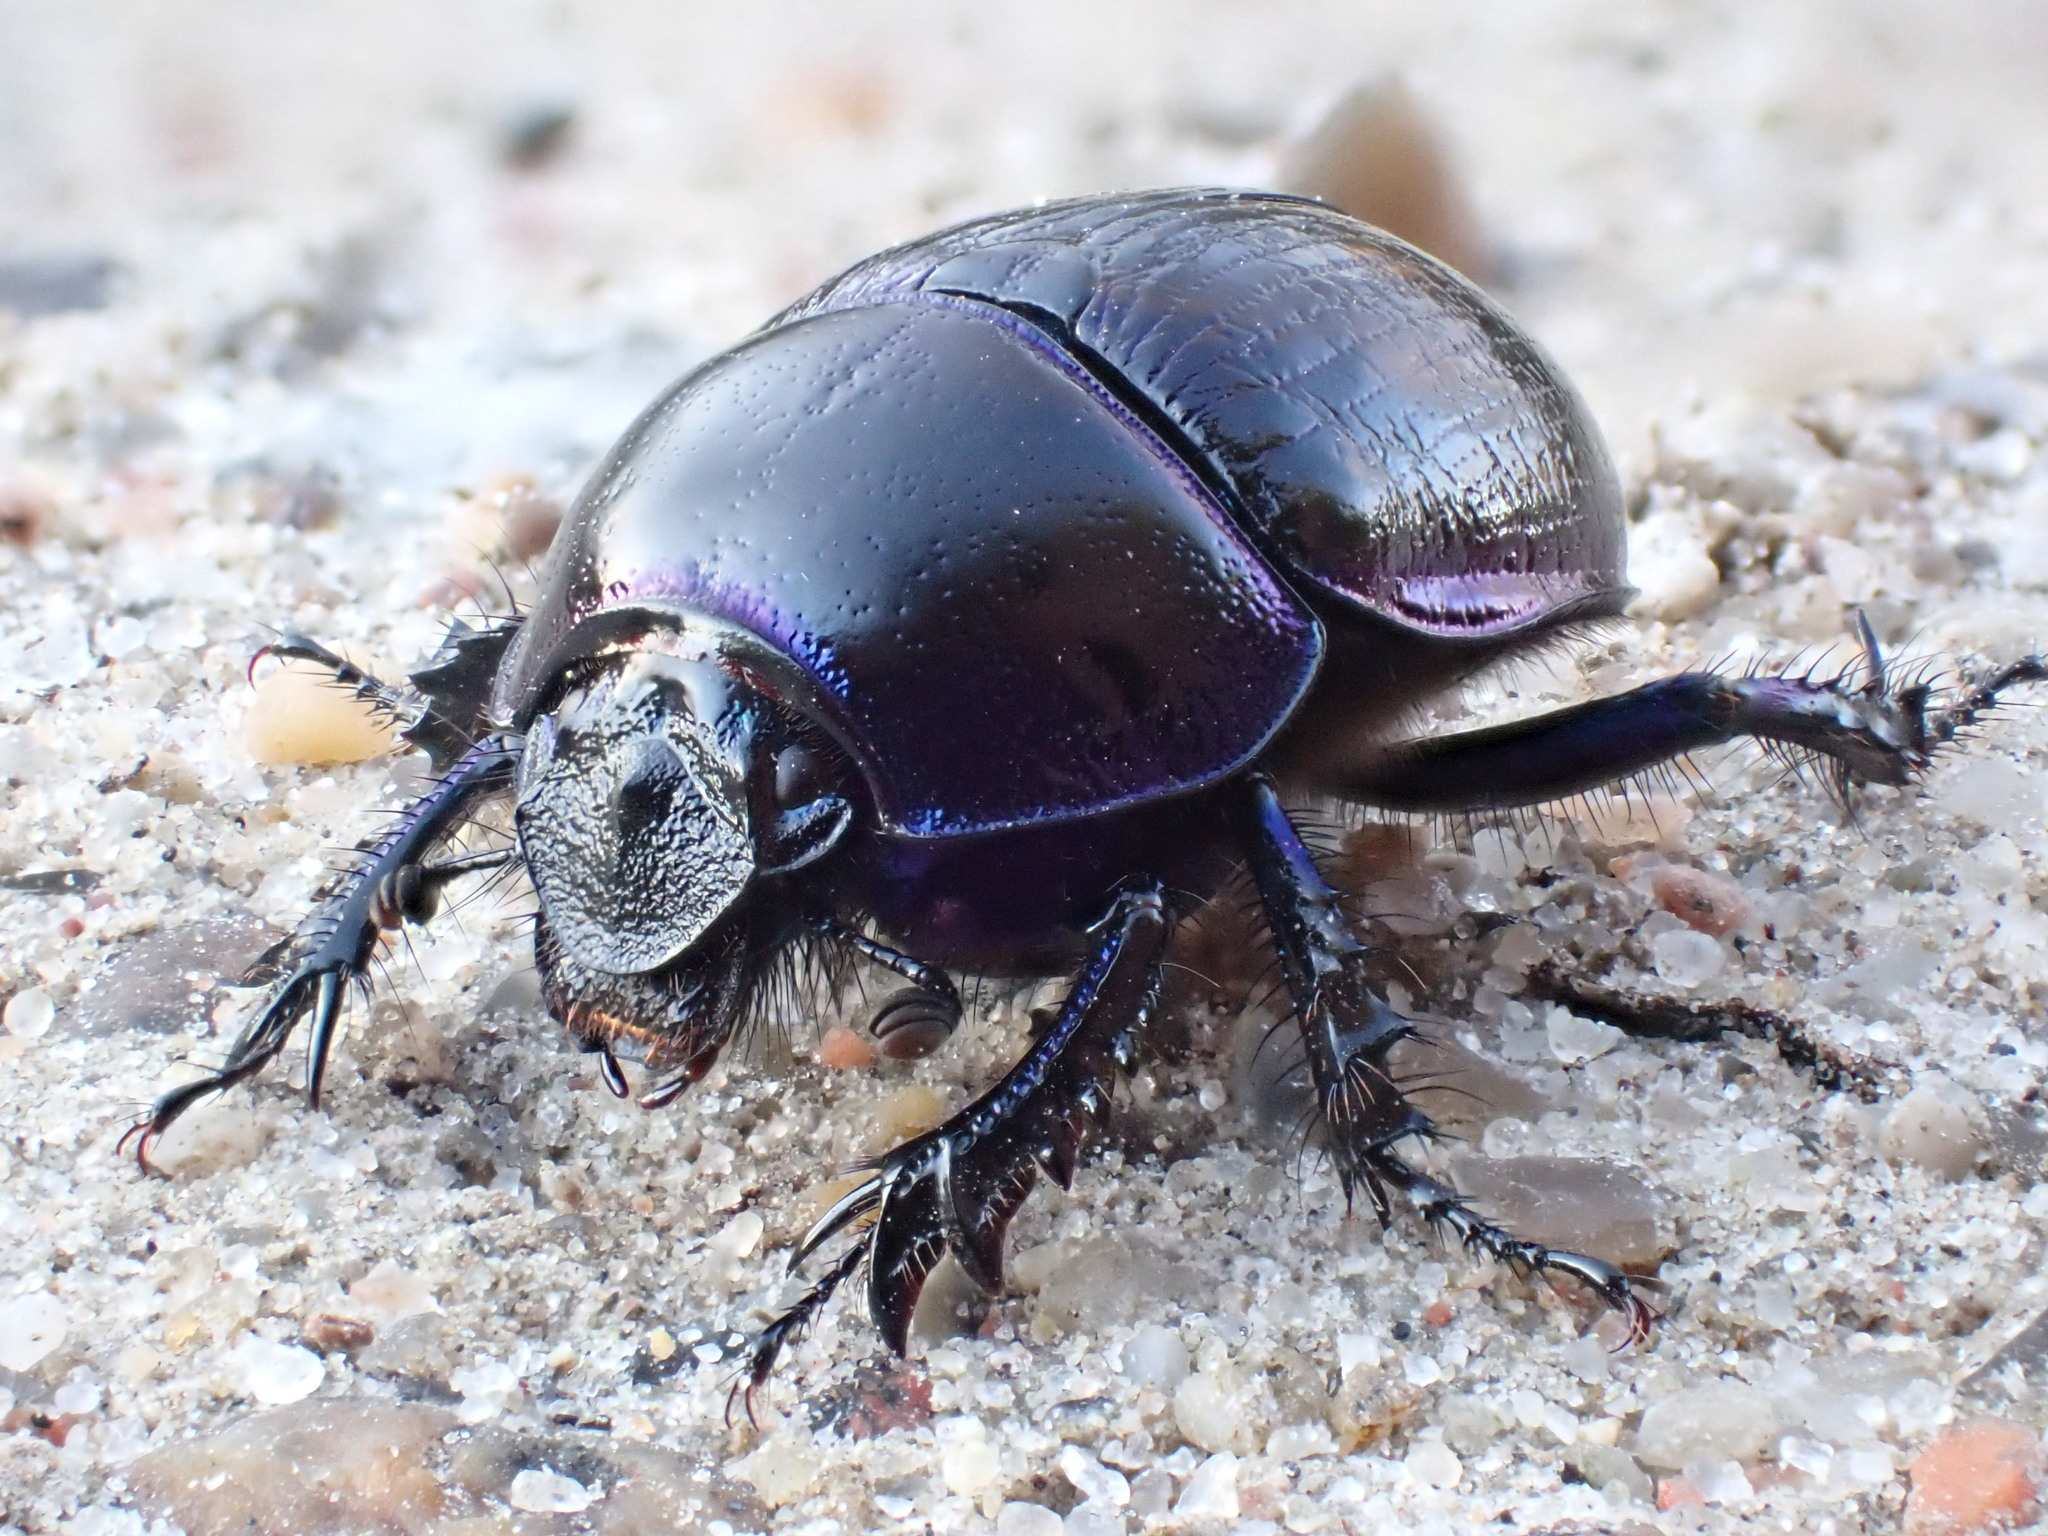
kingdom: Animalia
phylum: Arthropoda
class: Insecta
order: Coleoptera
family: Geotrupidae
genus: Anoplotrupes
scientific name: Anoplotrupes stercorosus
